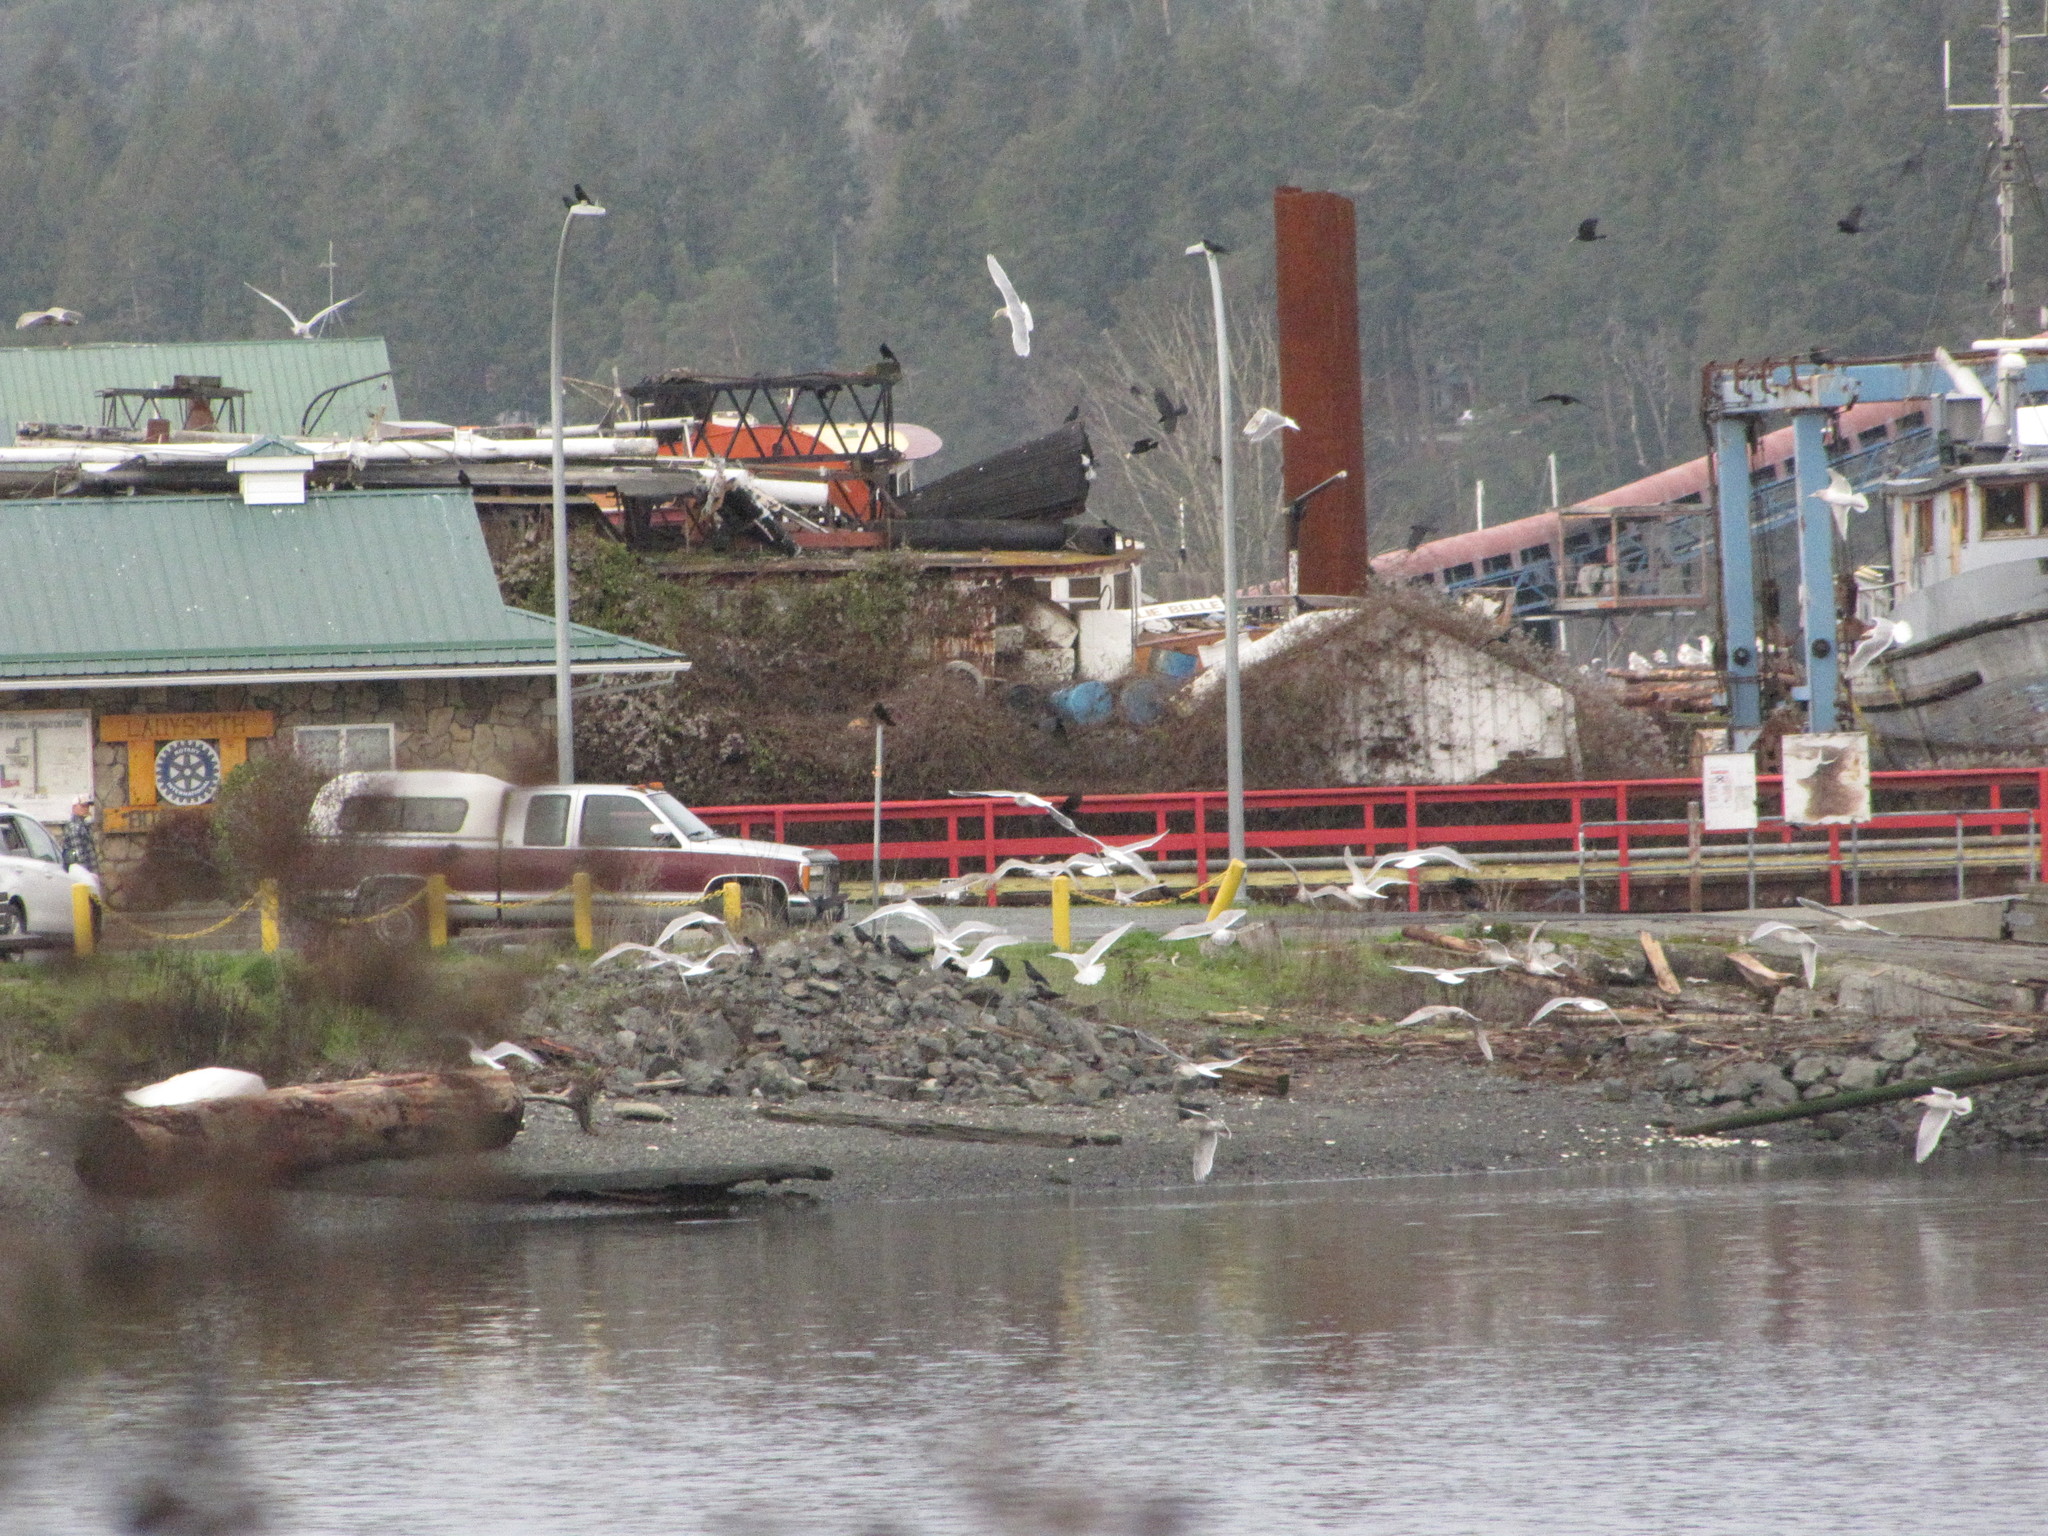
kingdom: Animalia
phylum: Chordata
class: Aves
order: Charadriiformes
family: Laridae
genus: Larus
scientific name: Larus glaucescens
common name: Glaucous-winged gull
